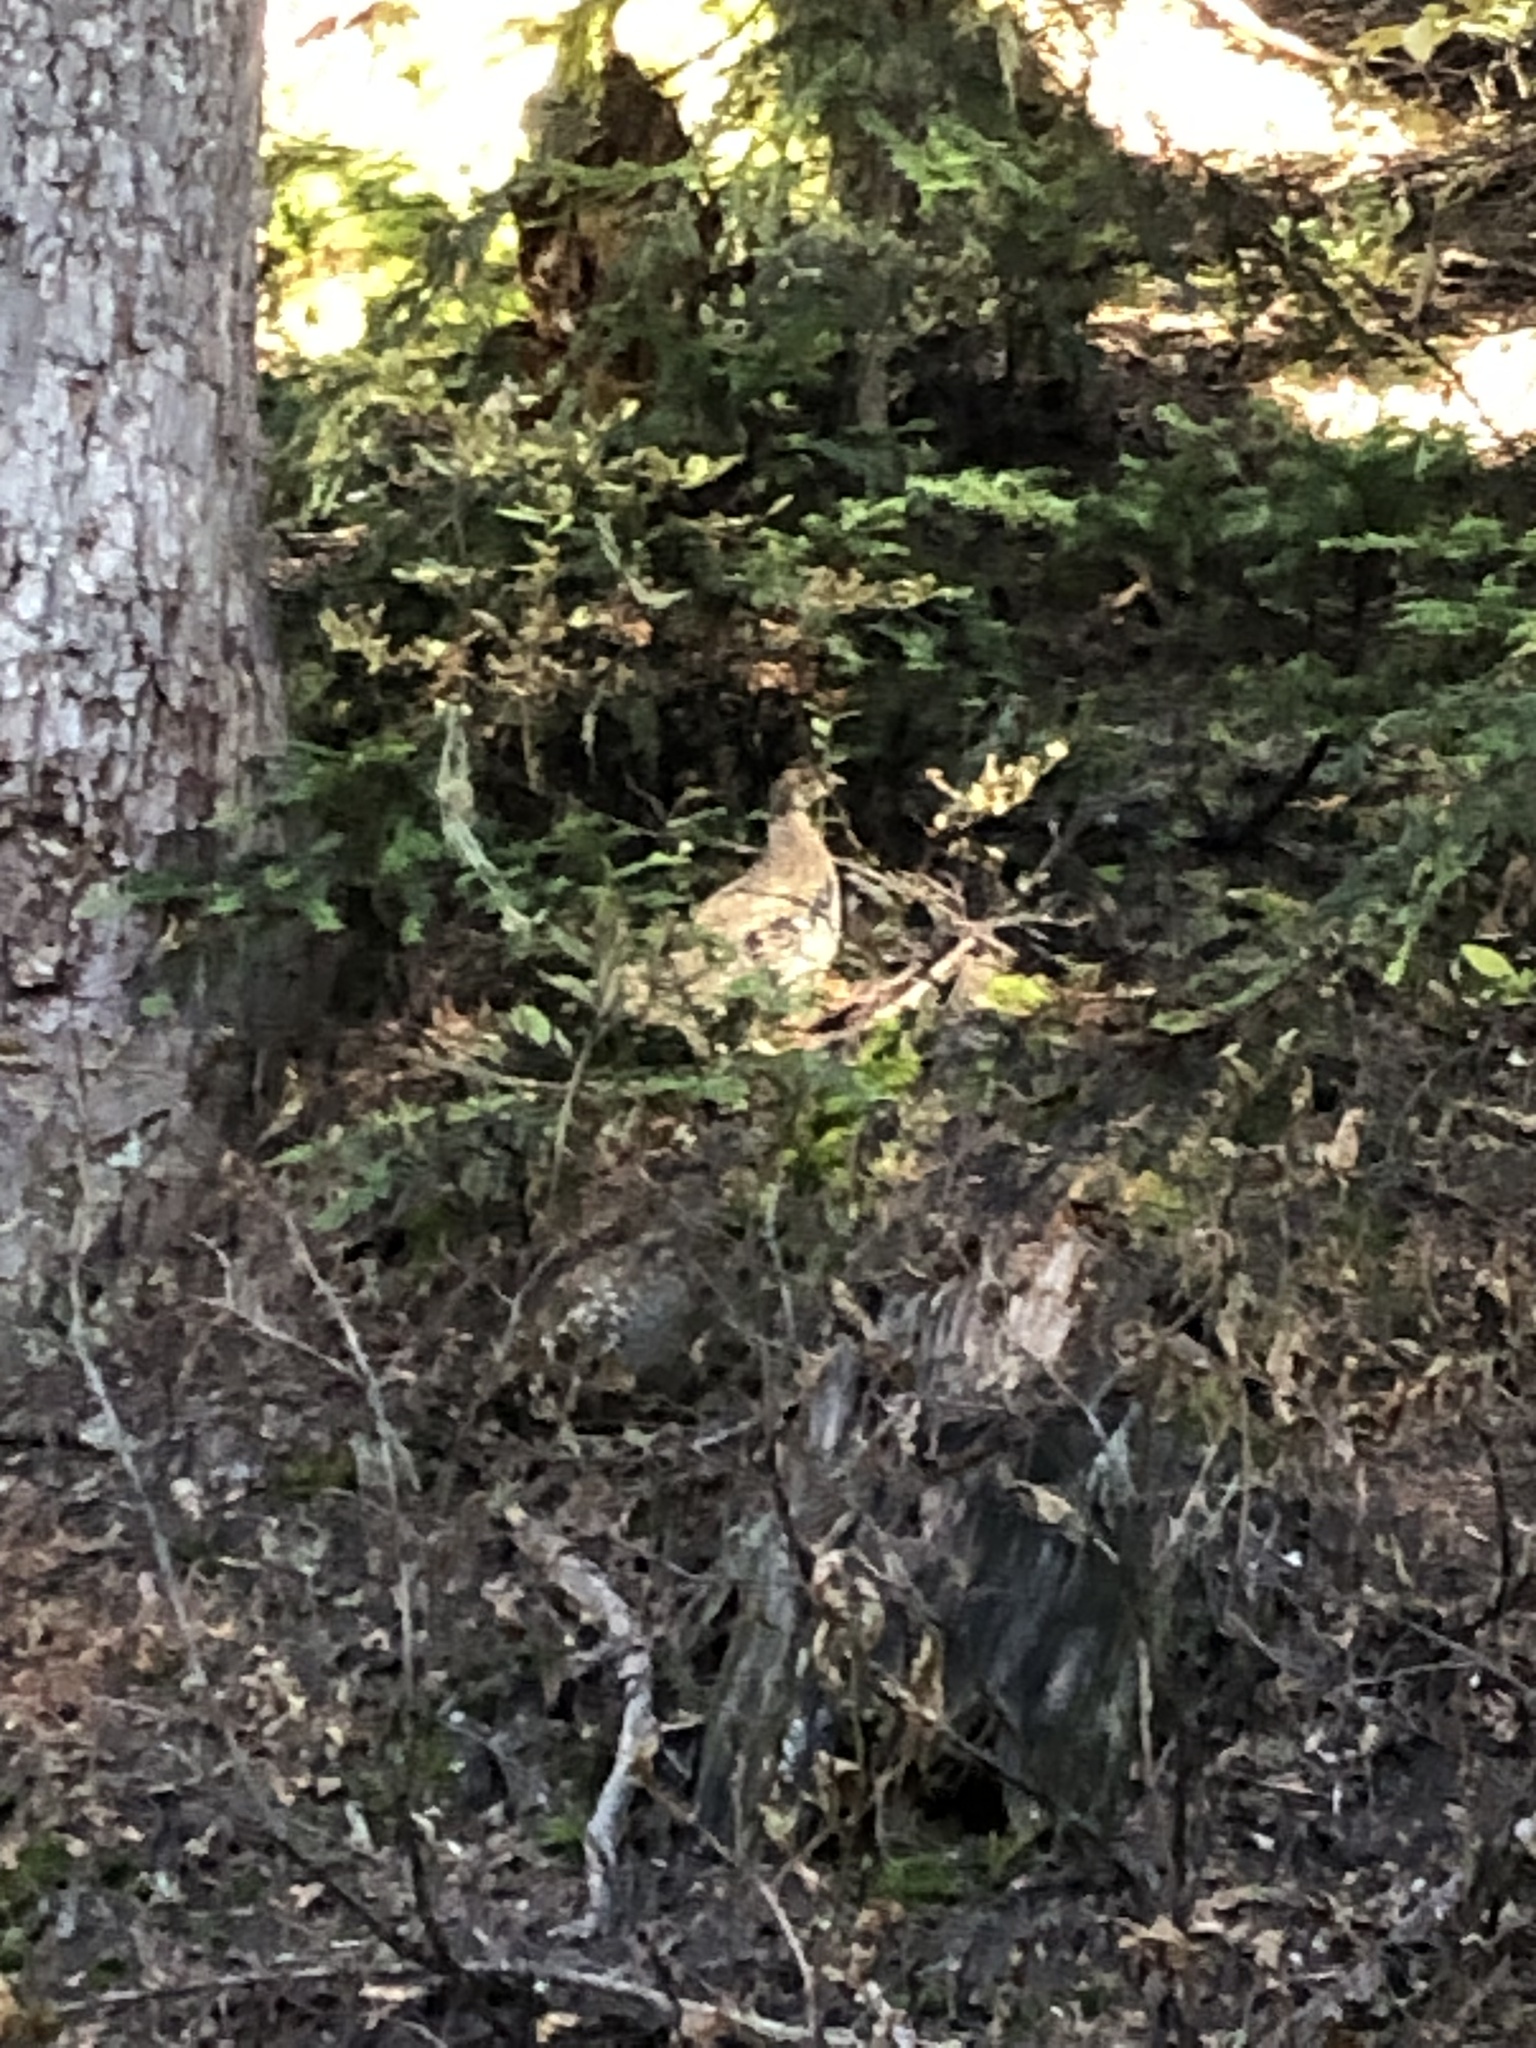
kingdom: Animalia
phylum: Chordata
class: Aves
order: Galliformes
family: Phasianidae
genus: Dendragapus
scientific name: Dendragapus fuliginosus
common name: Sooty grouse
